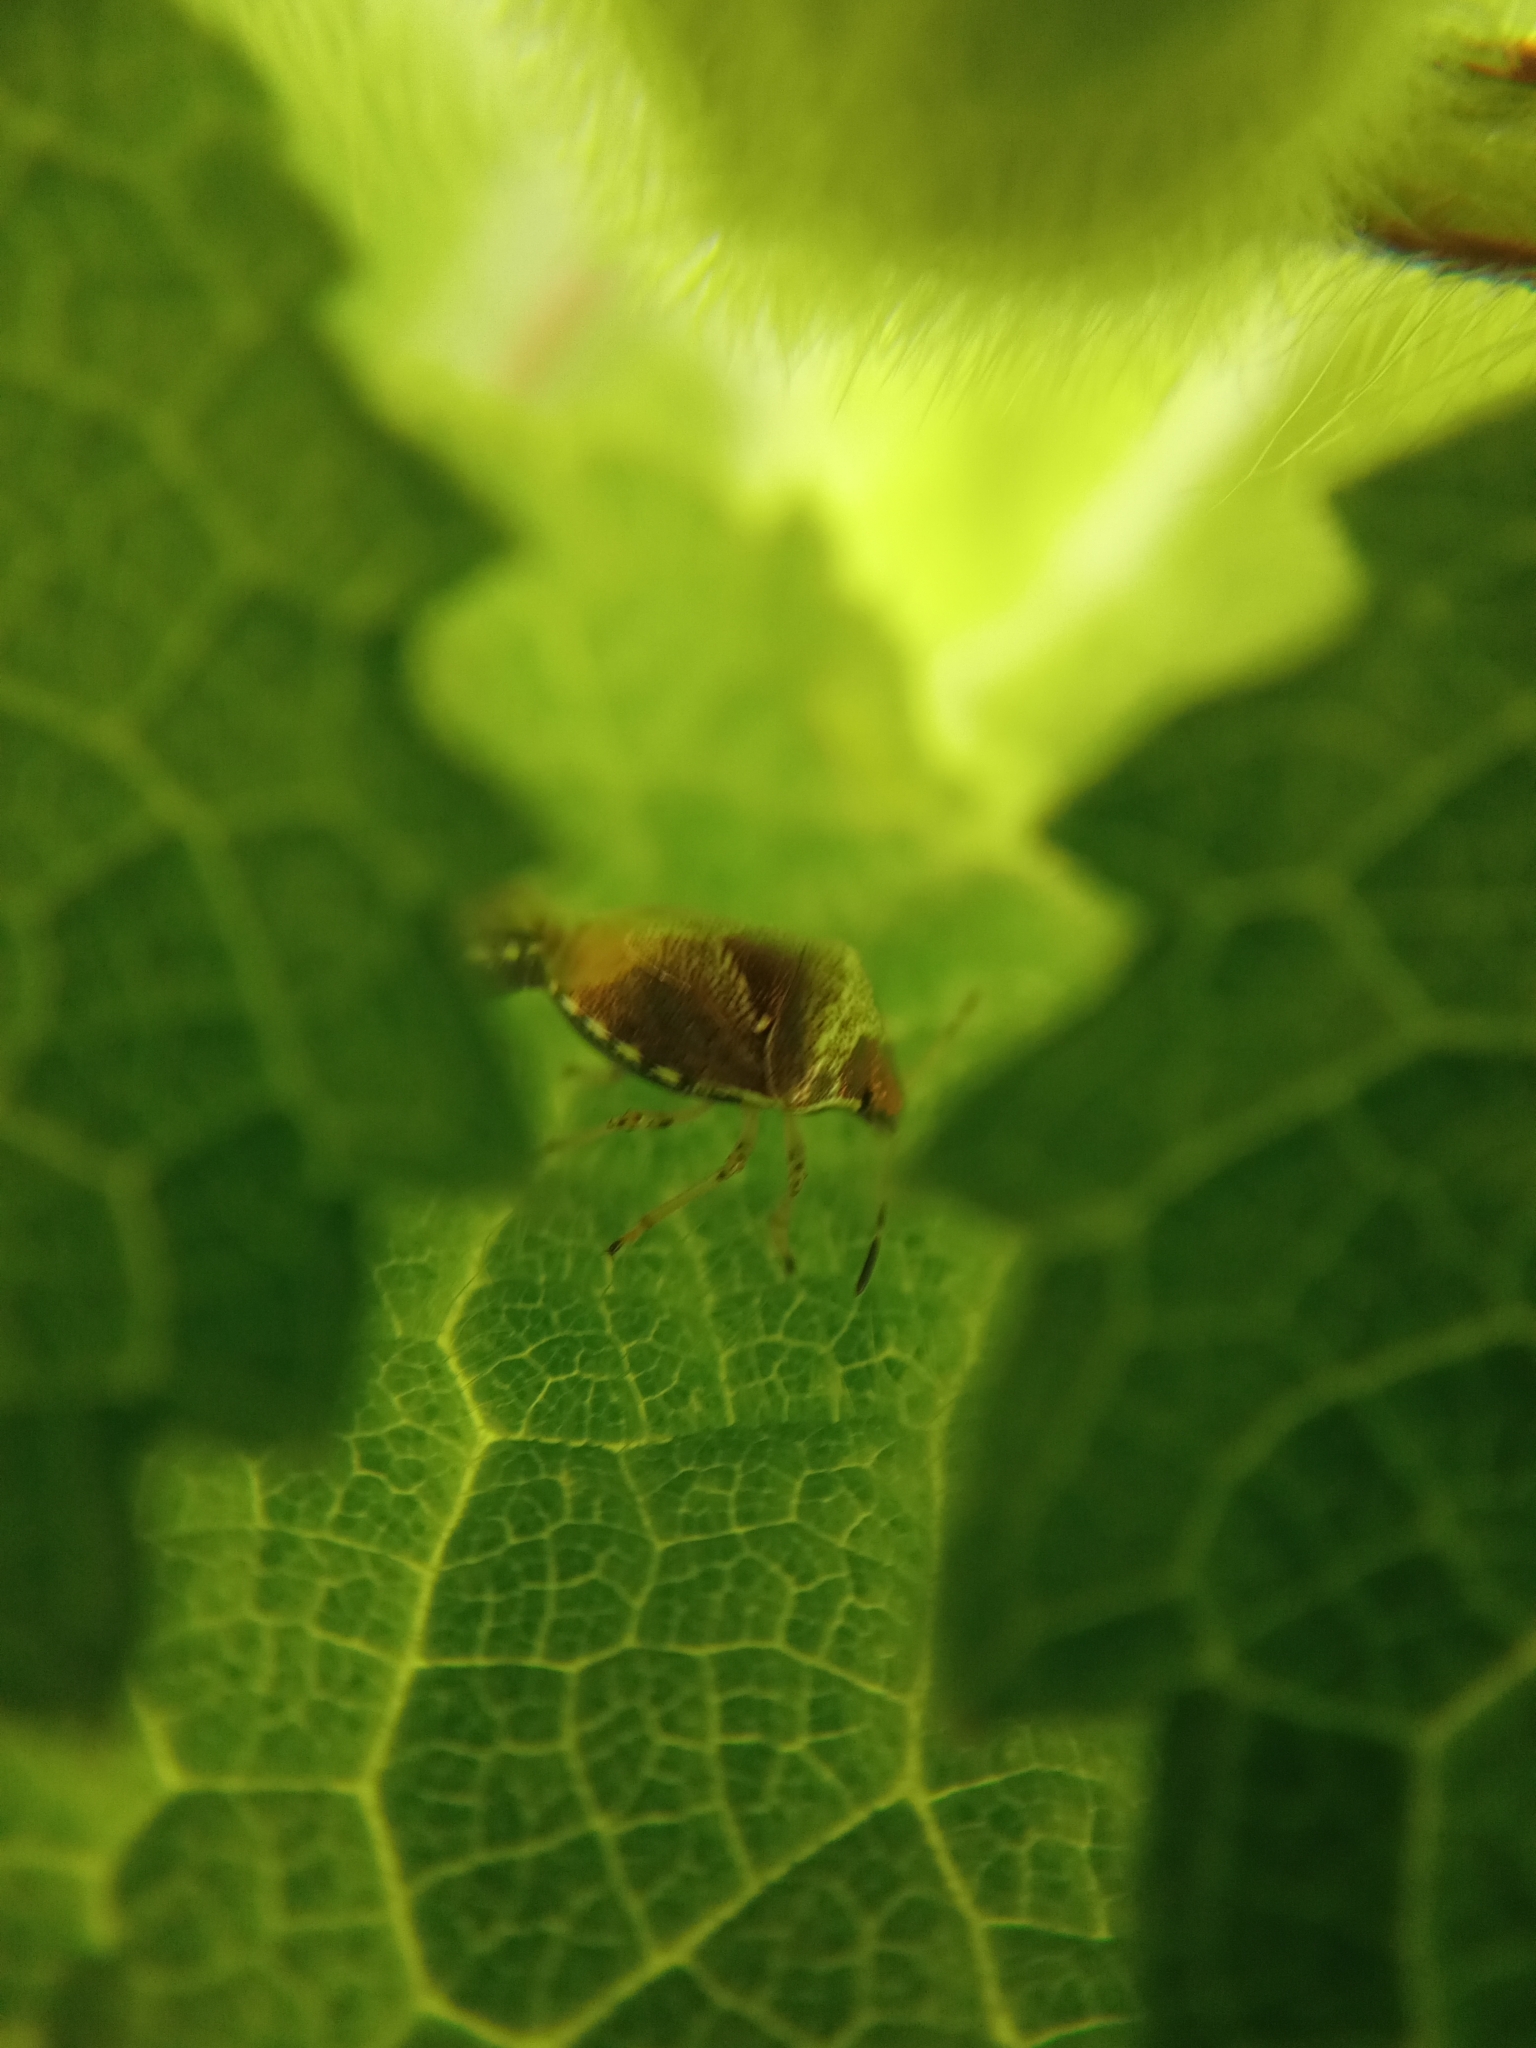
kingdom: Animalia
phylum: Arthropoda
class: Insecta
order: Hemiptera
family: Pentatomidae
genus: Eysarcoris
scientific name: Eysarcoris venustissimus
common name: Woundwort shieldbug
